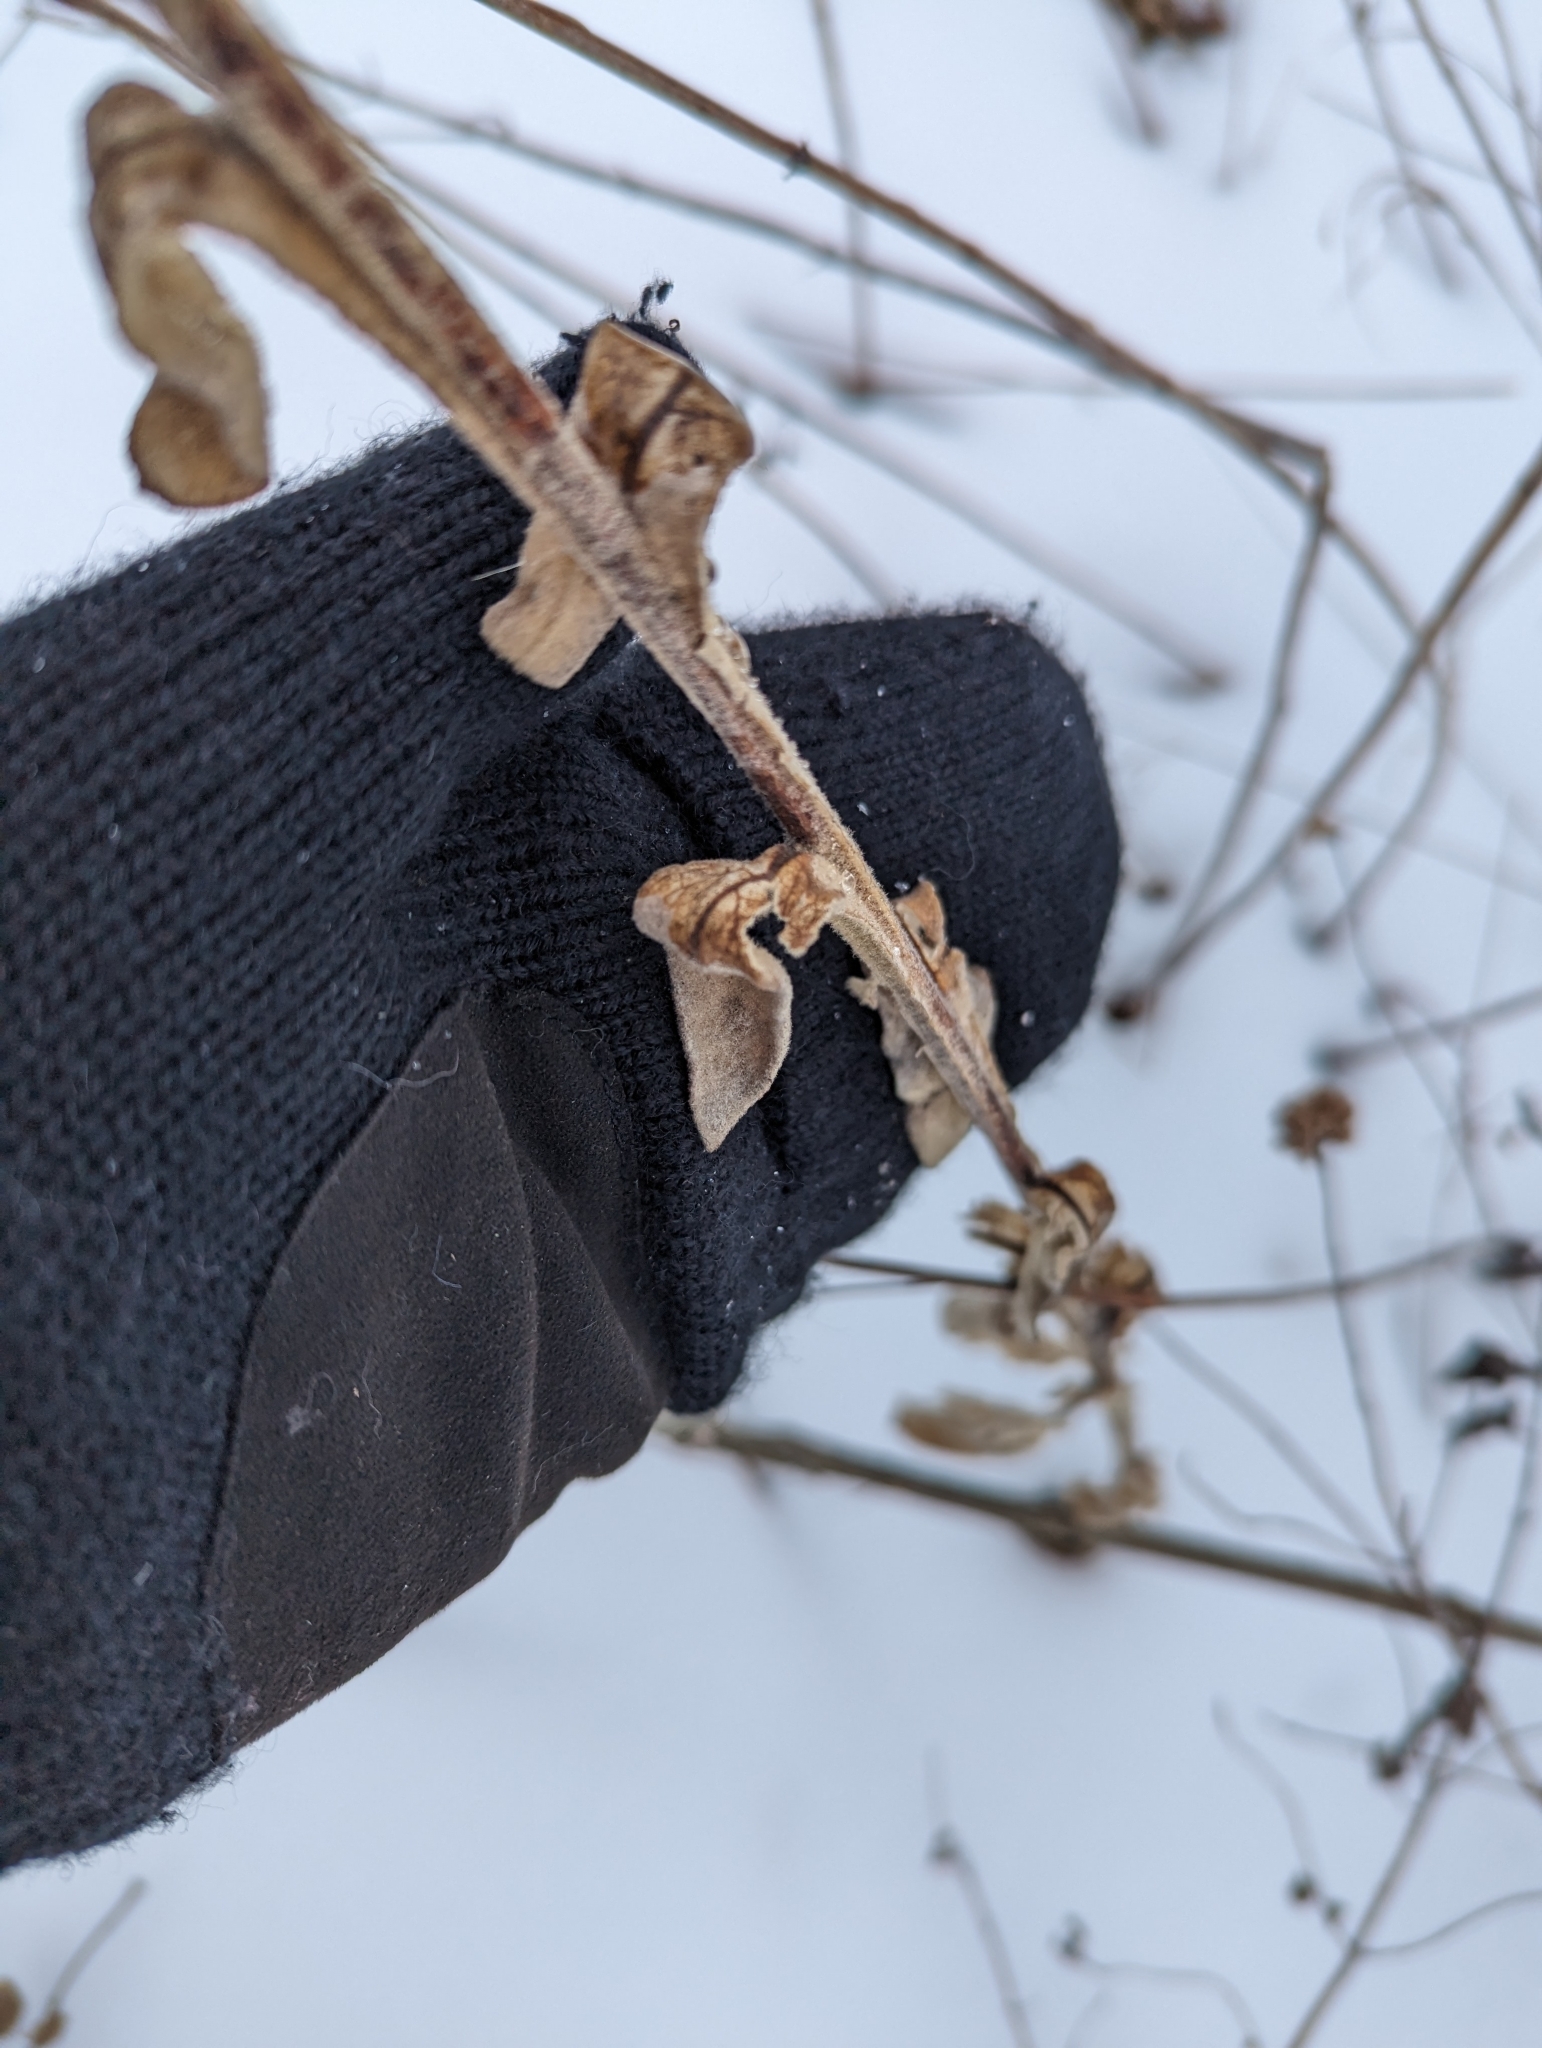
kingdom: Plantae
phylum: Tracheophyta
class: Magnoliopsida
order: Lamiales
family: Scrophulariaceae
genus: Verbascum
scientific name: Verbascum thapsus
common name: Common mullein
